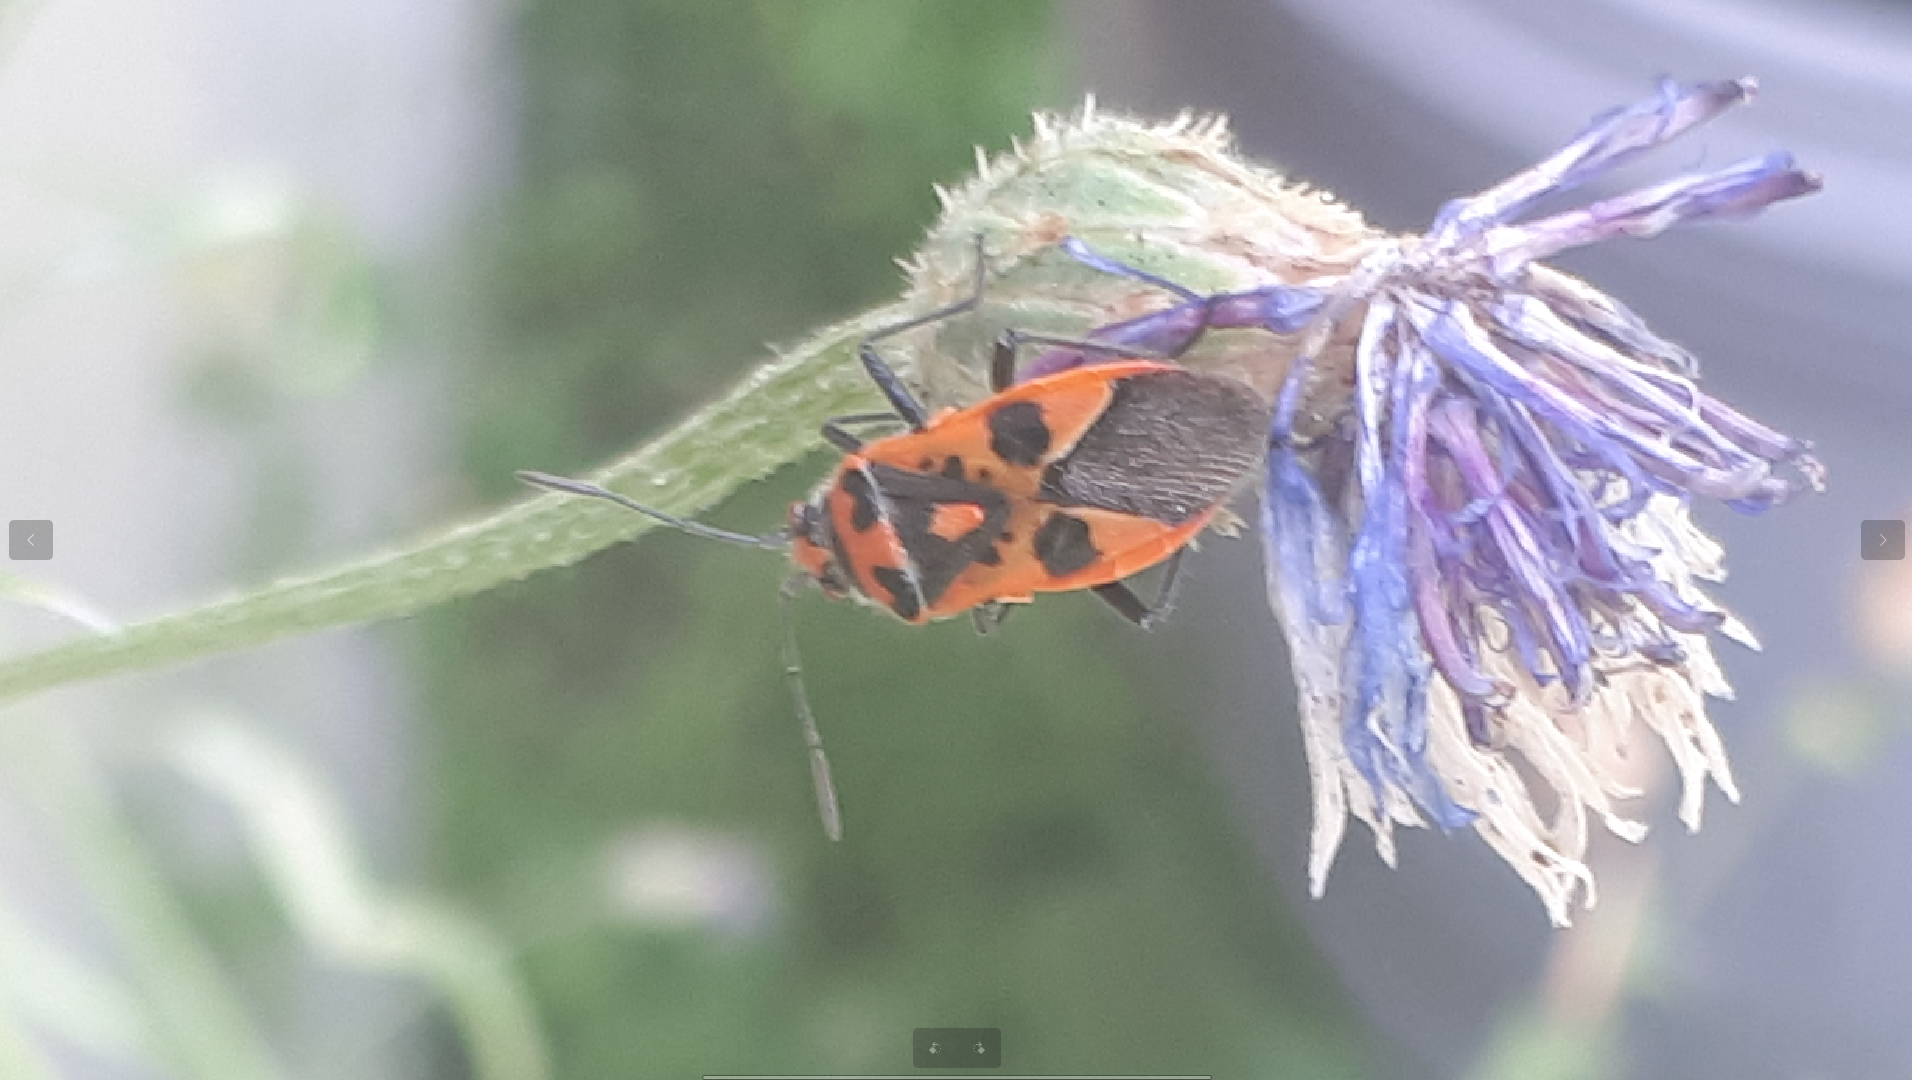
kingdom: Animalia
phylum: Arthropoda
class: Insecta
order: Hemiptera
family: Rhopalidae
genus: Corizus
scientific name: Corizus hyoscyami
